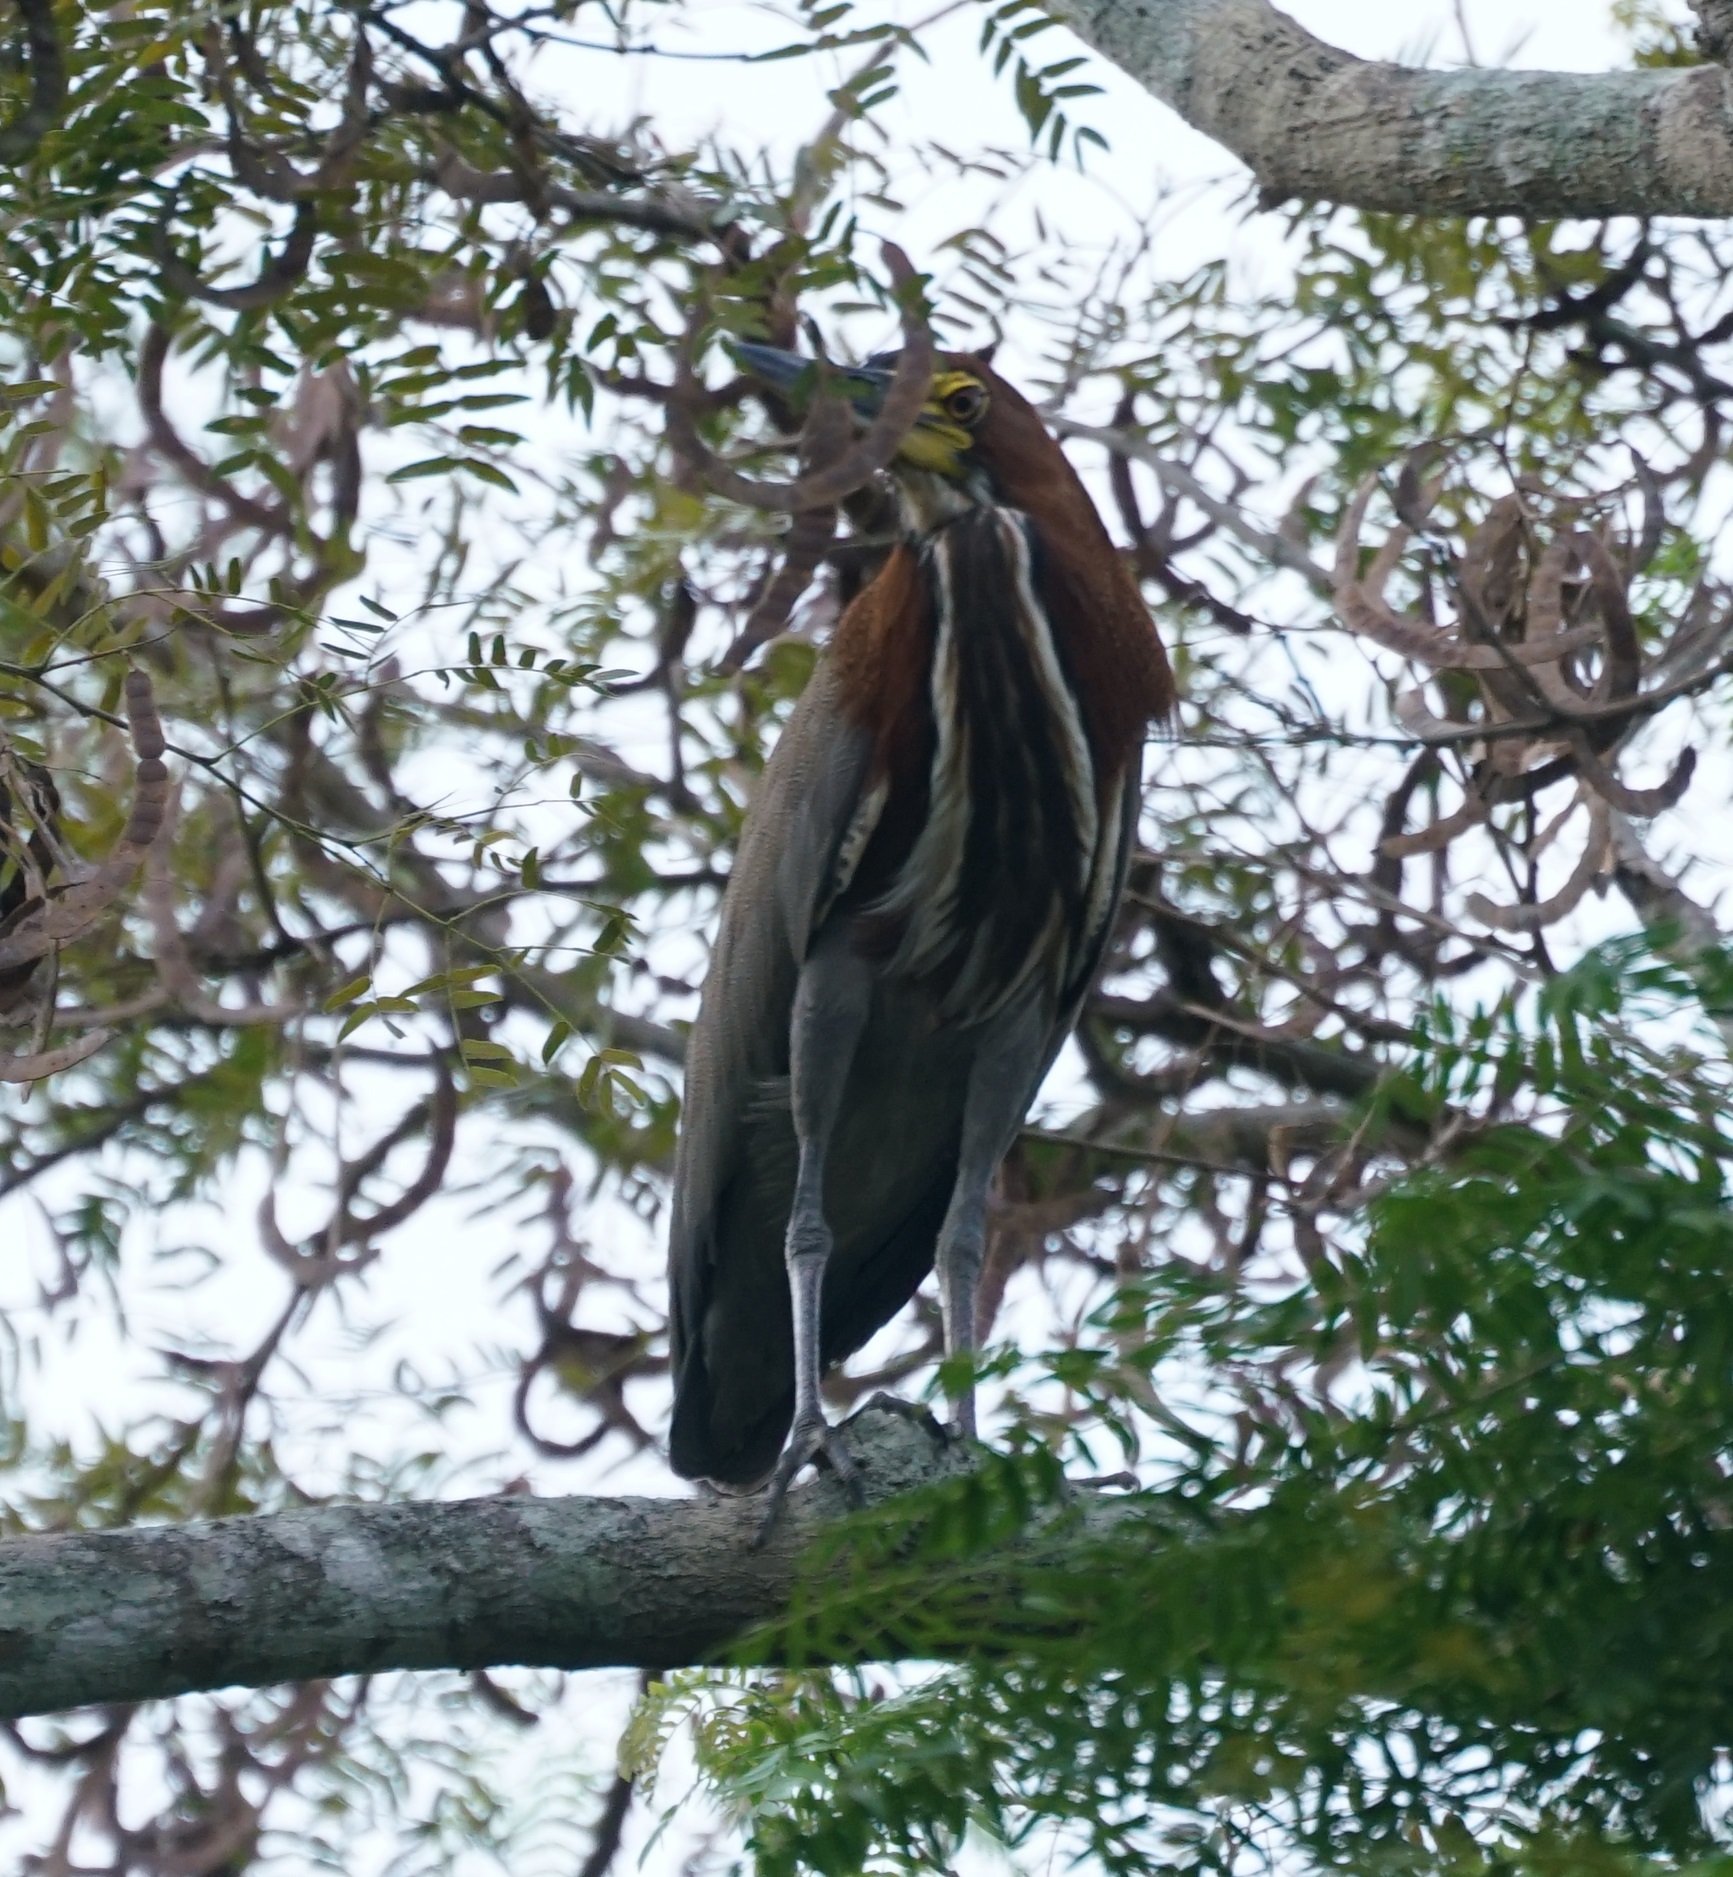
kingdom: Animalia
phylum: Chordata
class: Aves
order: Pelecaniformes
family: Ardeidae
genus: Tigrisoma
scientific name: Tigrisoma lineatum
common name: Rufescent tiger-heron
